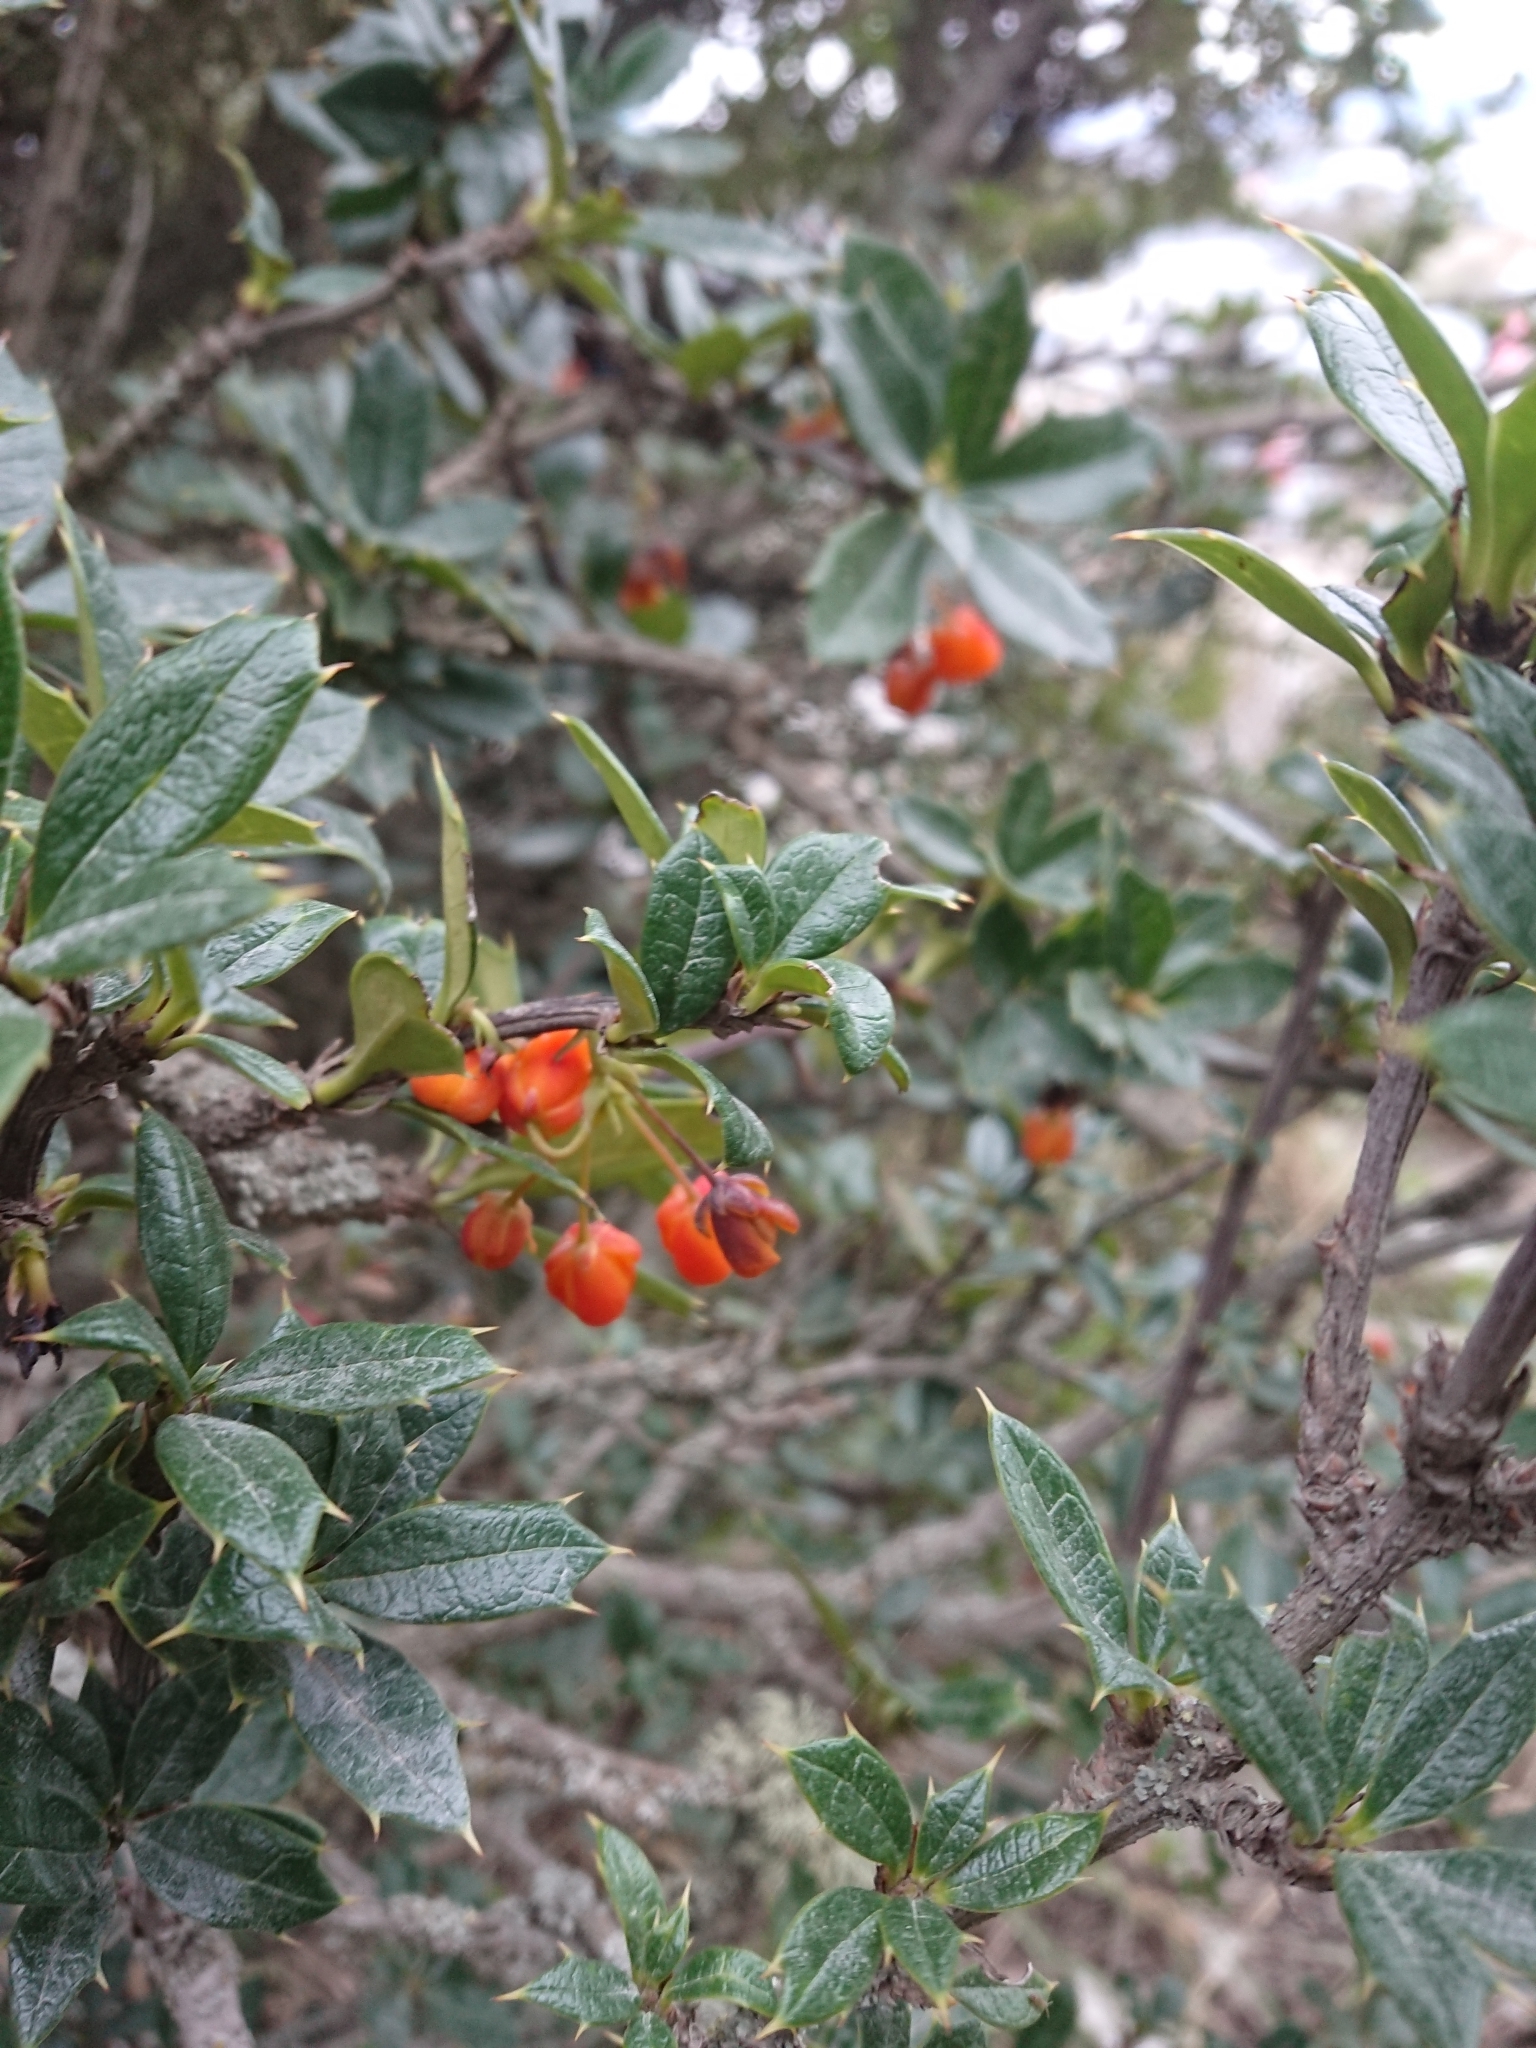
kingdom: Plantae
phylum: Tracheophyta
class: Magnoliopsida
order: Ranunculales
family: Berberidaceae
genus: Berberis
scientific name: Berberis ilicifolia
